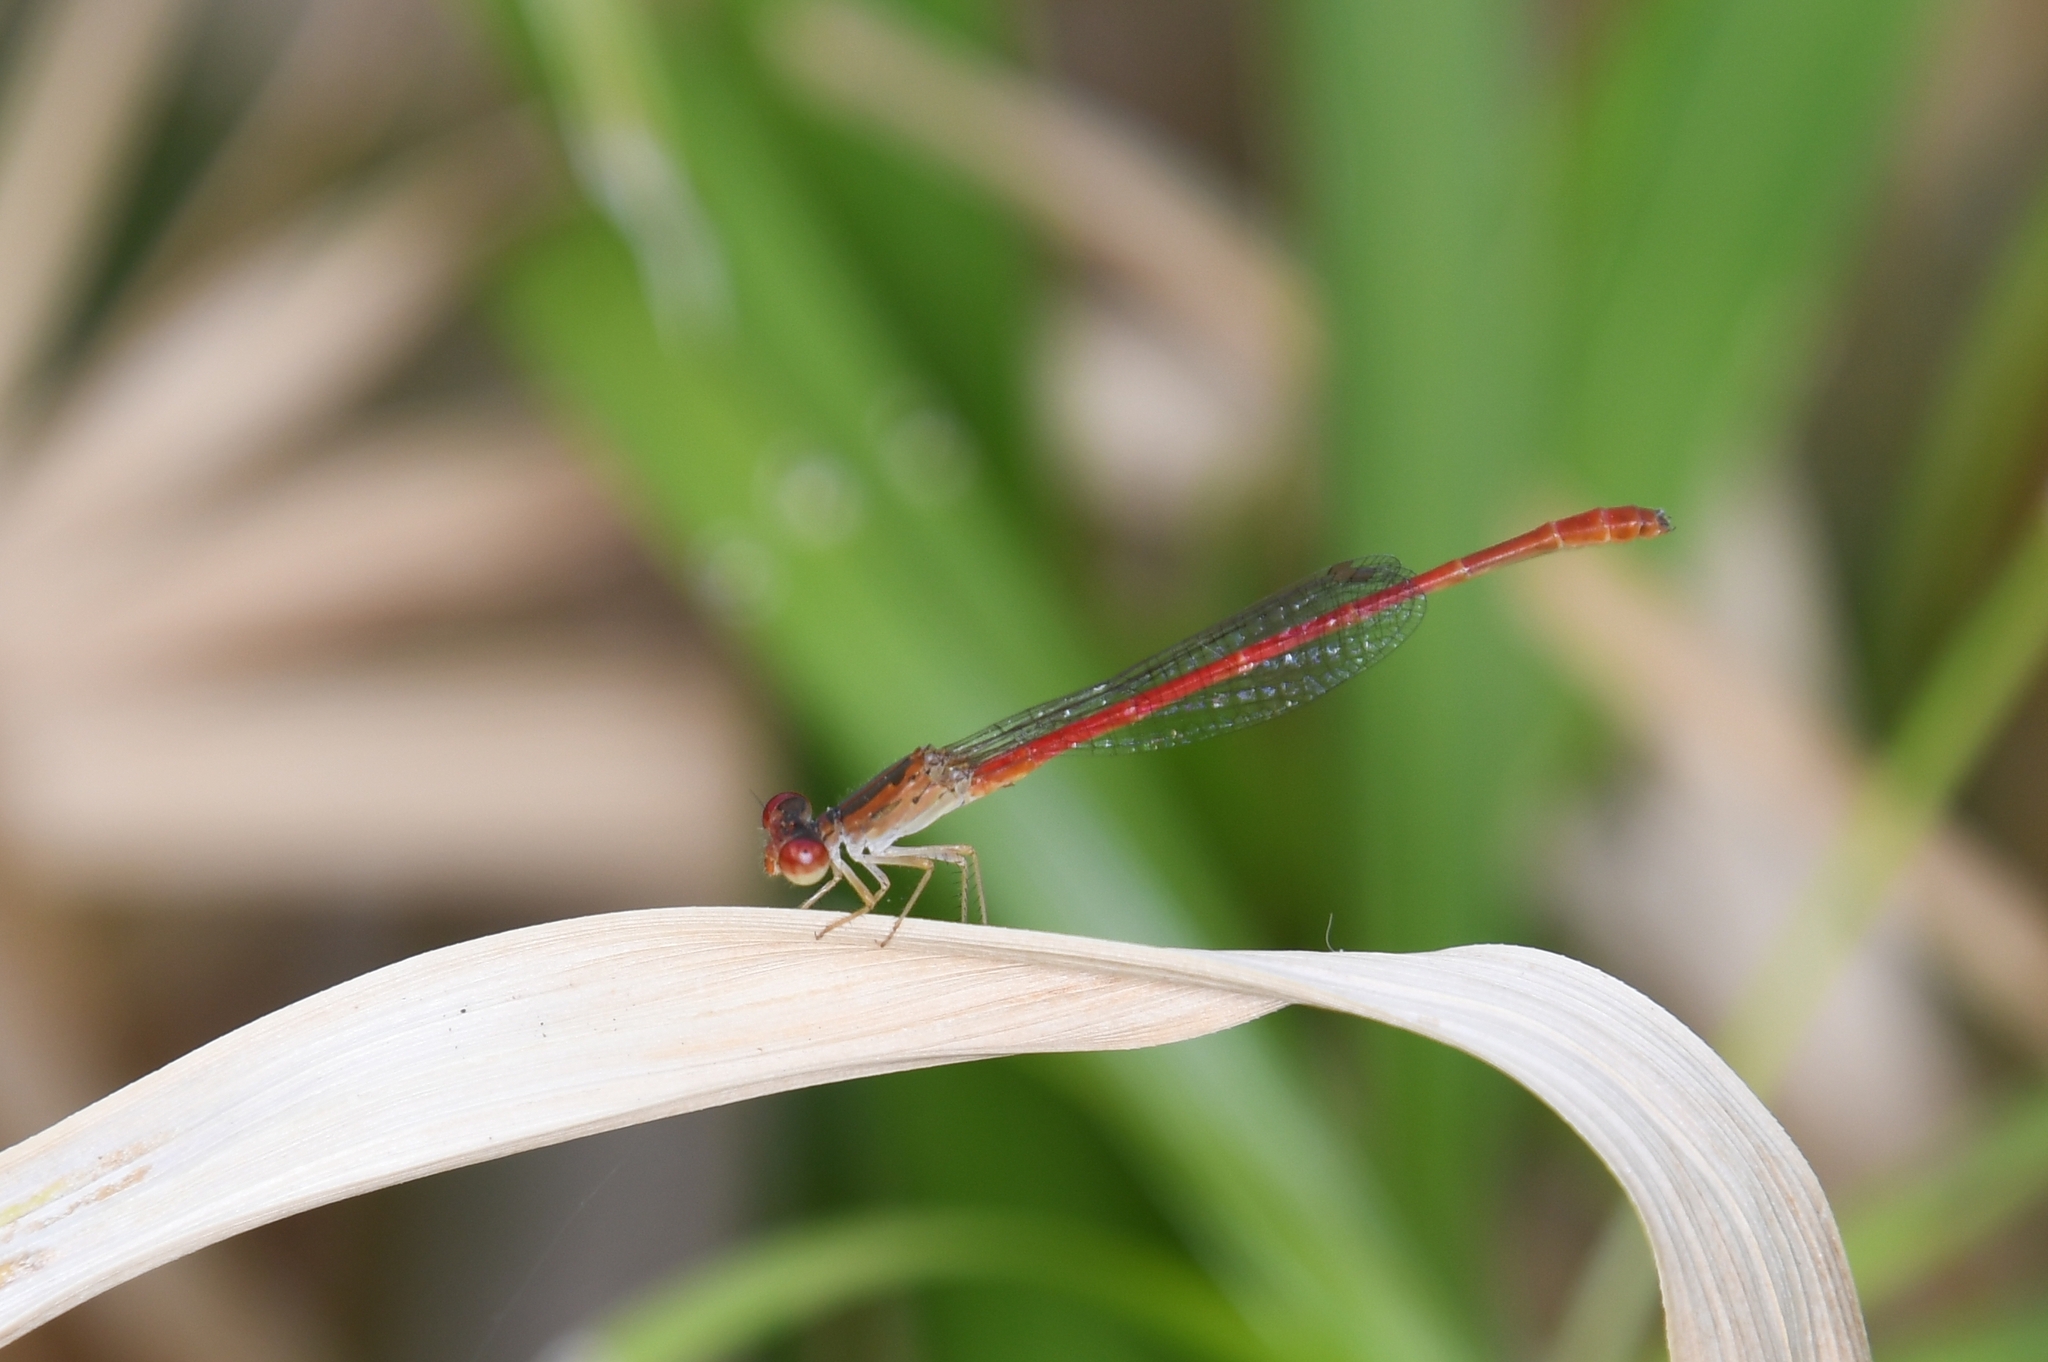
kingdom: Animalia
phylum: Arthropoda
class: Insecta
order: Odonata
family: Coenagrionidae
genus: Telebasis
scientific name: Telebasis salva
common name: Desert firetail
